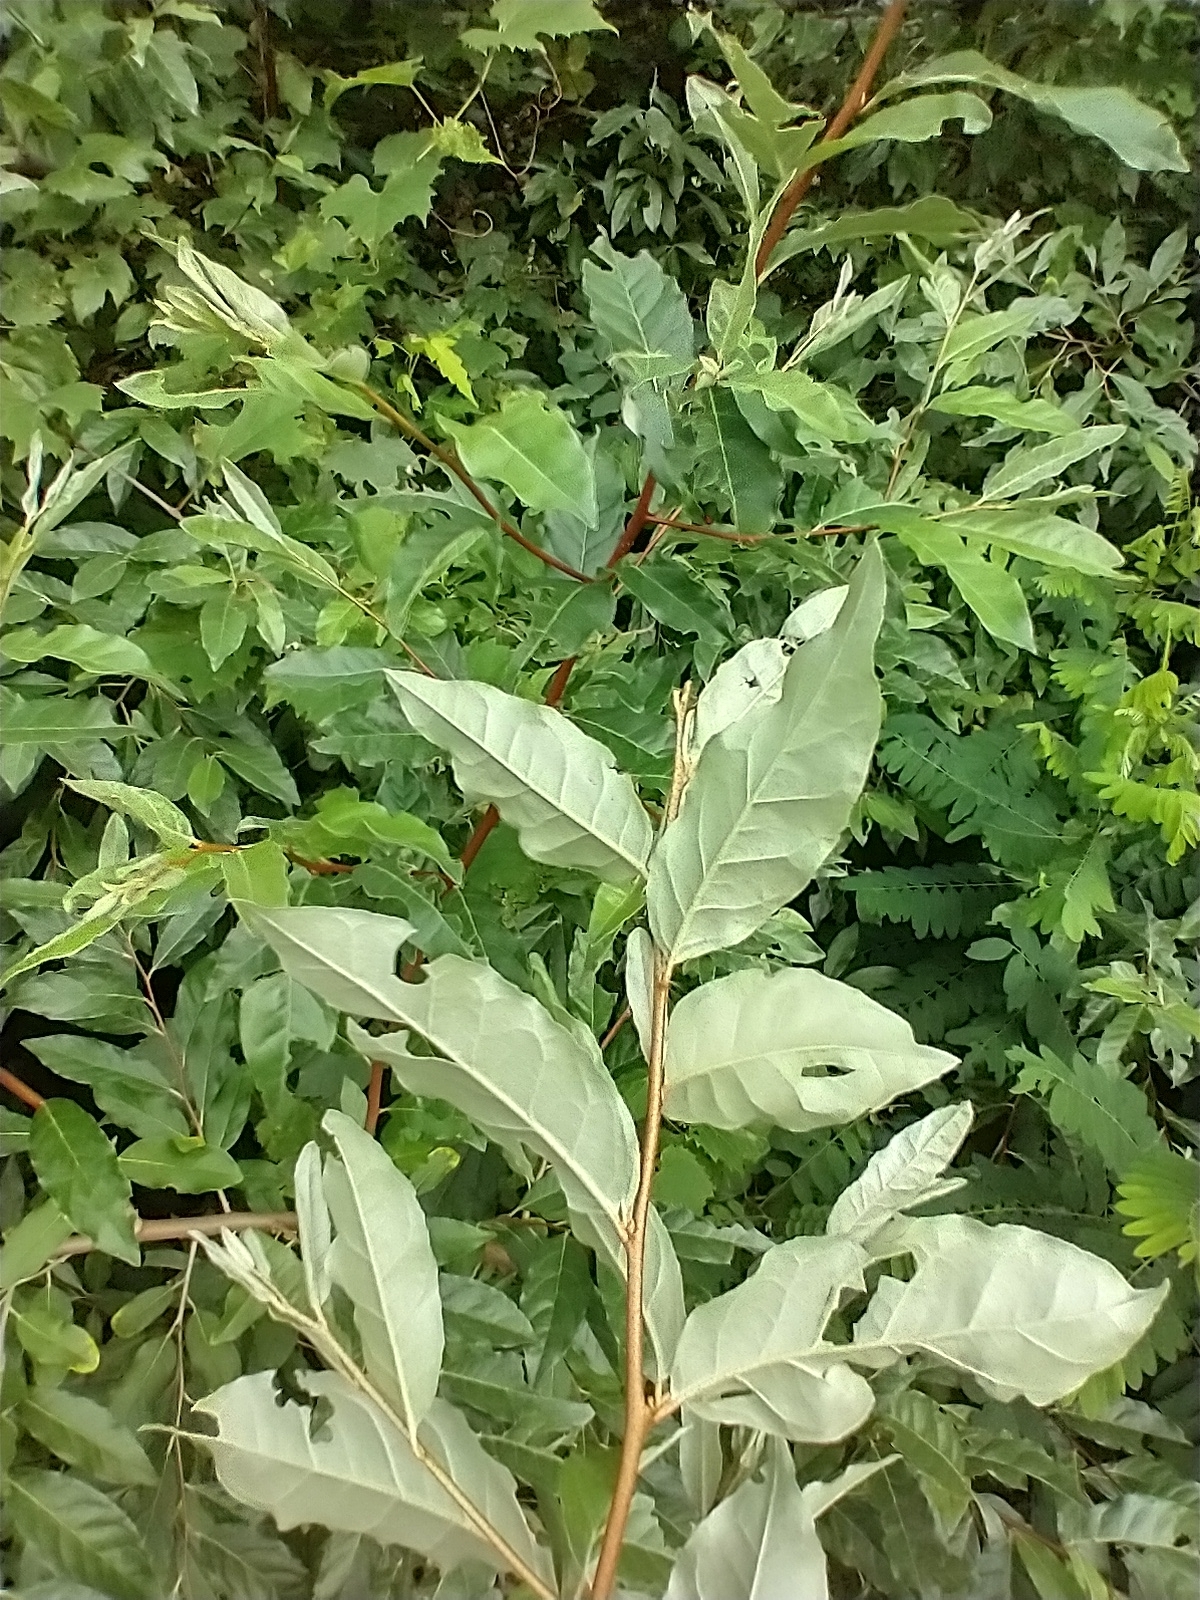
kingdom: Plantae
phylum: Tracheophyta
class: Magnoliopsida
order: Rosales
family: Elaeagnaceae
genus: Elaeagnus
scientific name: Elaeagnus umbellata
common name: Autumn olive
